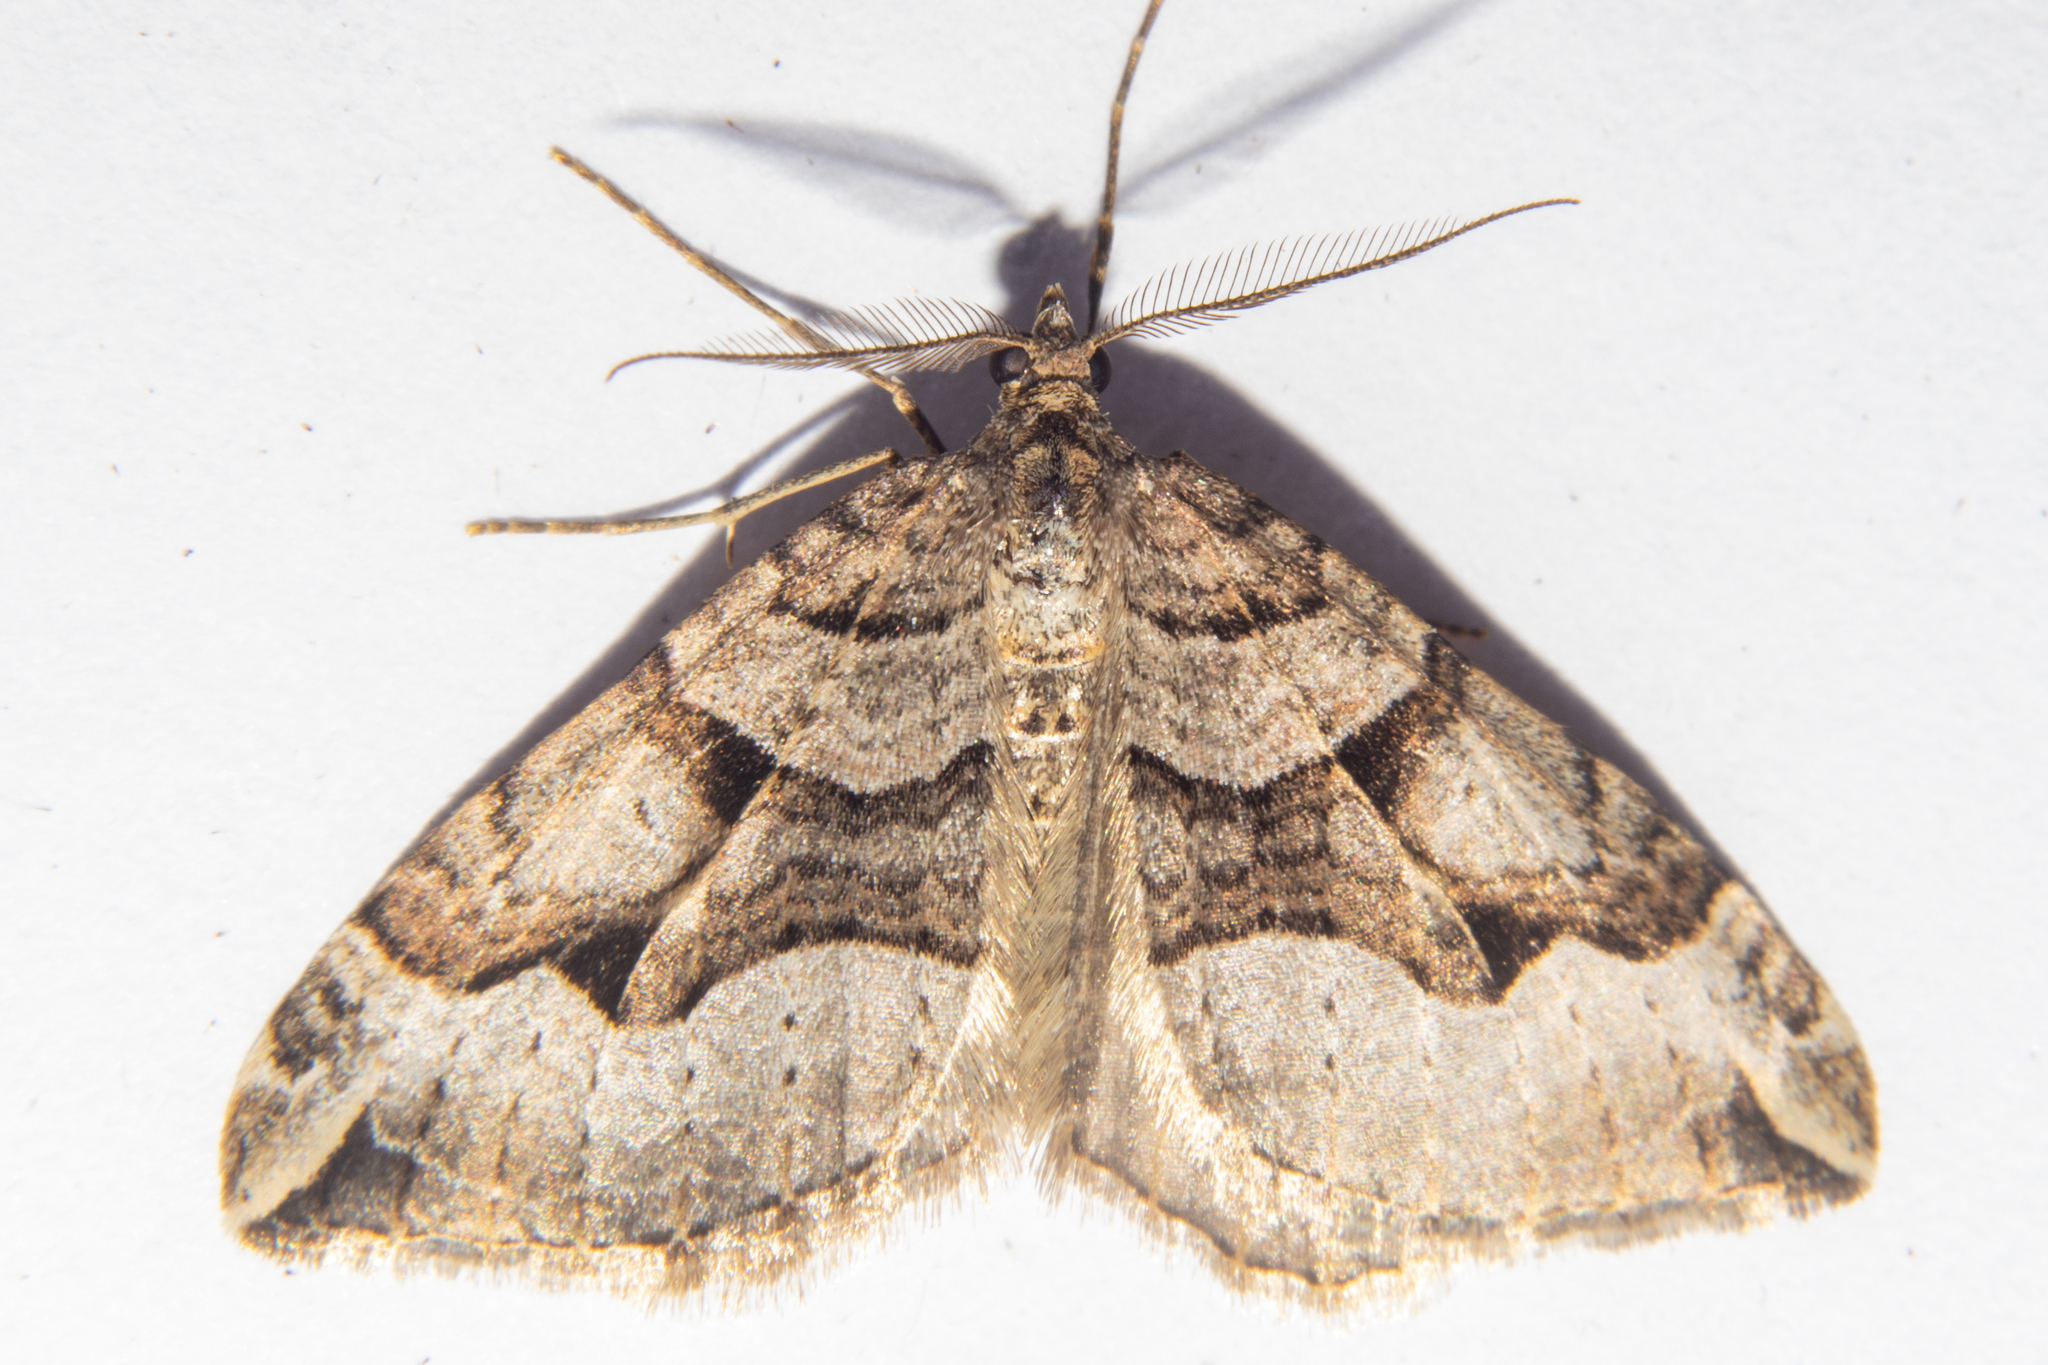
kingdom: Animalia
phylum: Arthropoda
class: Insecta
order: Lepidoptera
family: Geometridae
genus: Xanthorhoe
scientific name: Xanthorhoe semifissata
